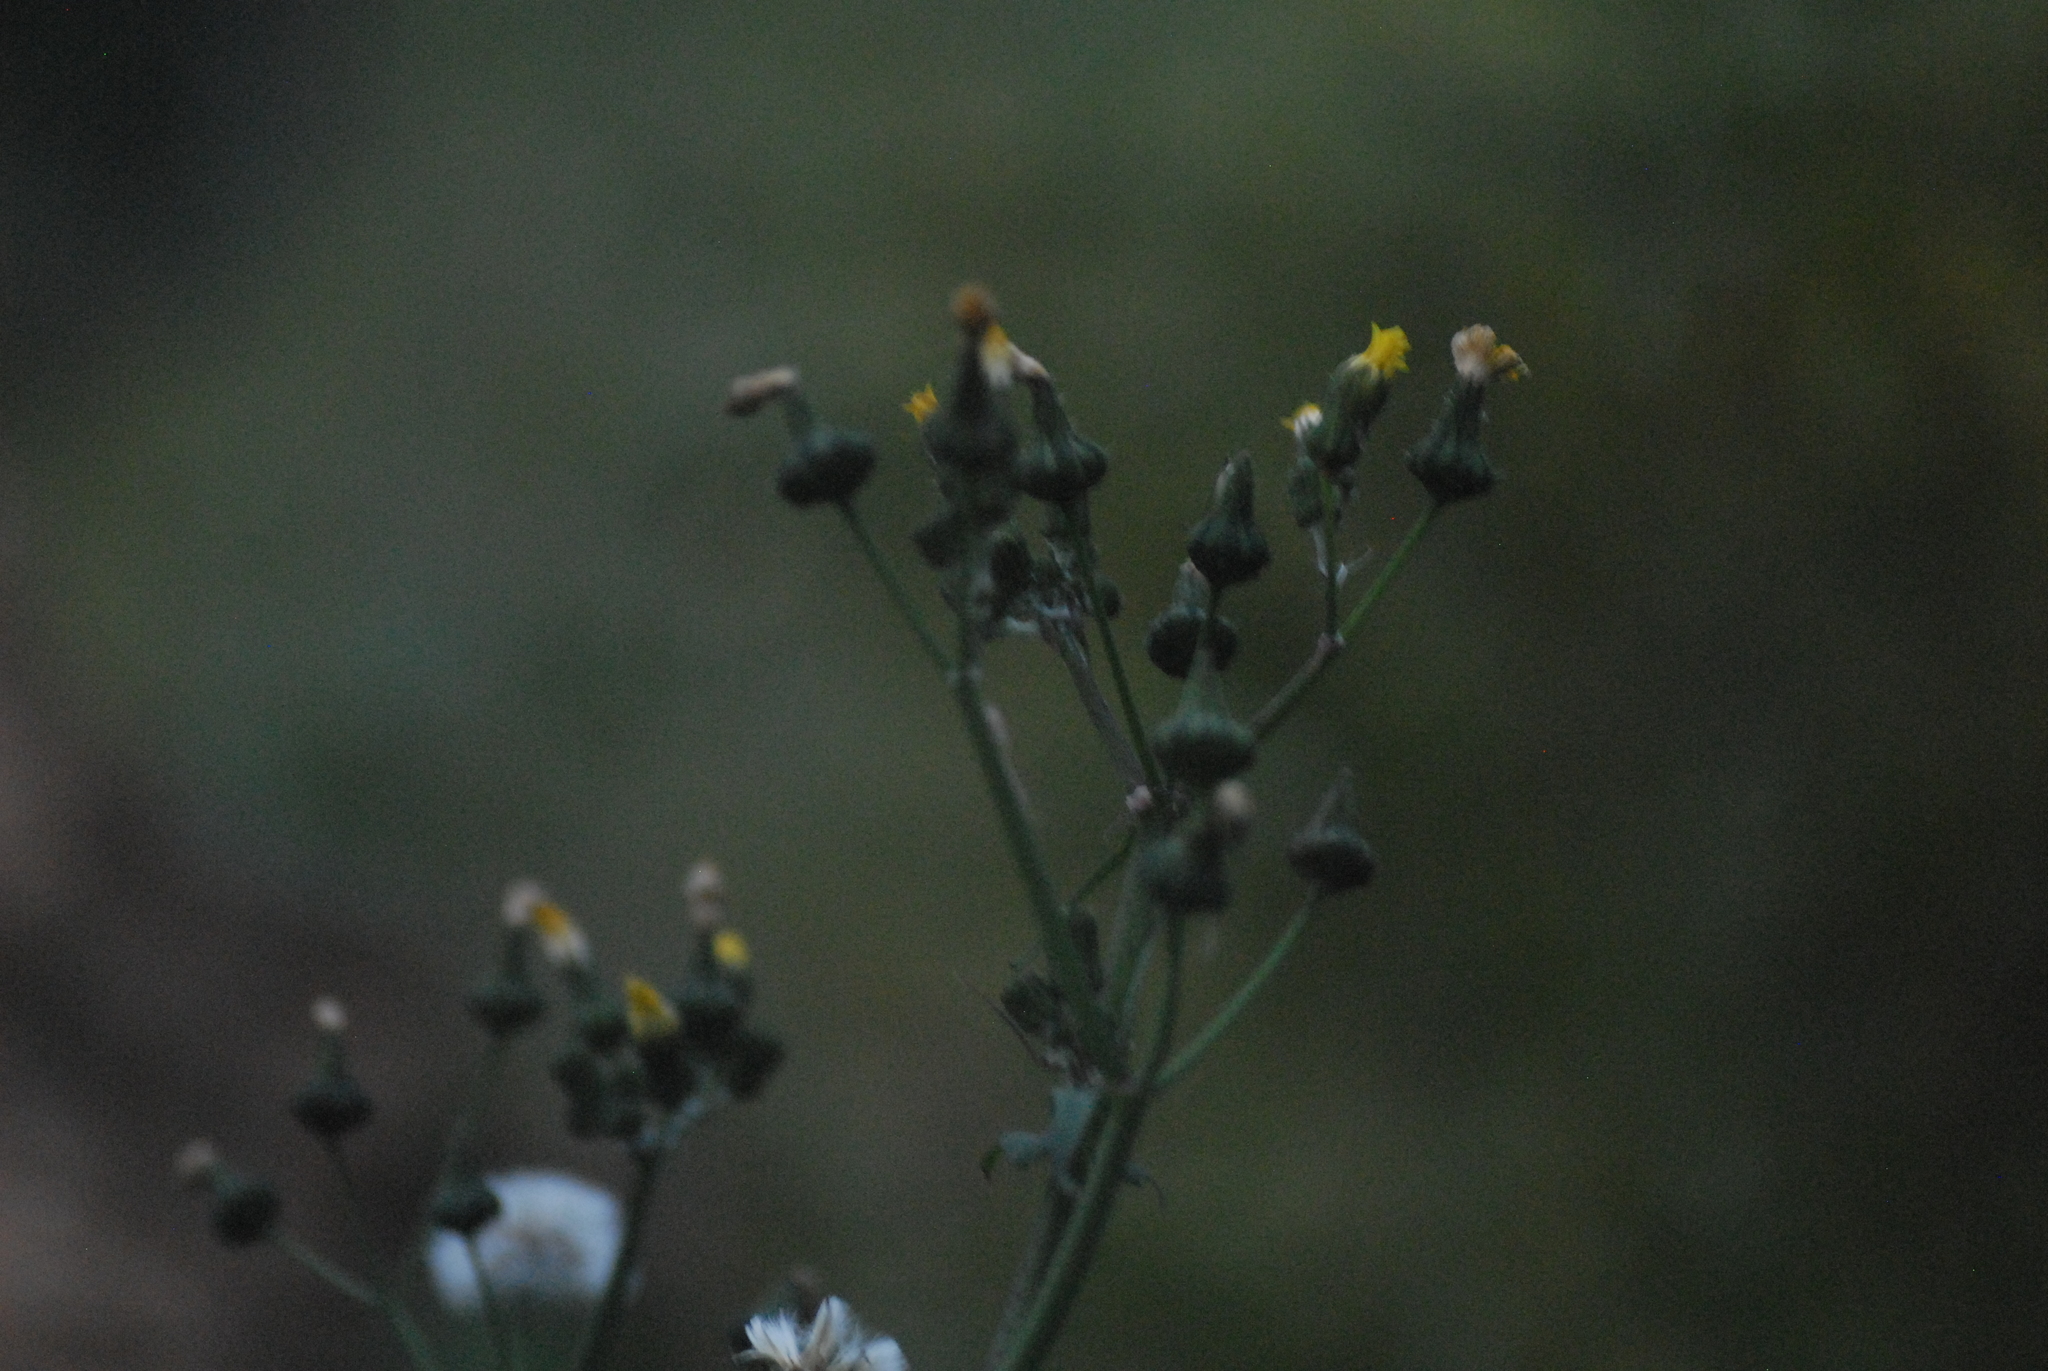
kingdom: Plantae
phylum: Tracheophyta
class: Magnoliopsida
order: Asterales
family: Asteraceae
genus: Sonchus
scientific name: Sonchus oleraceus
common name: Common sowthistle
